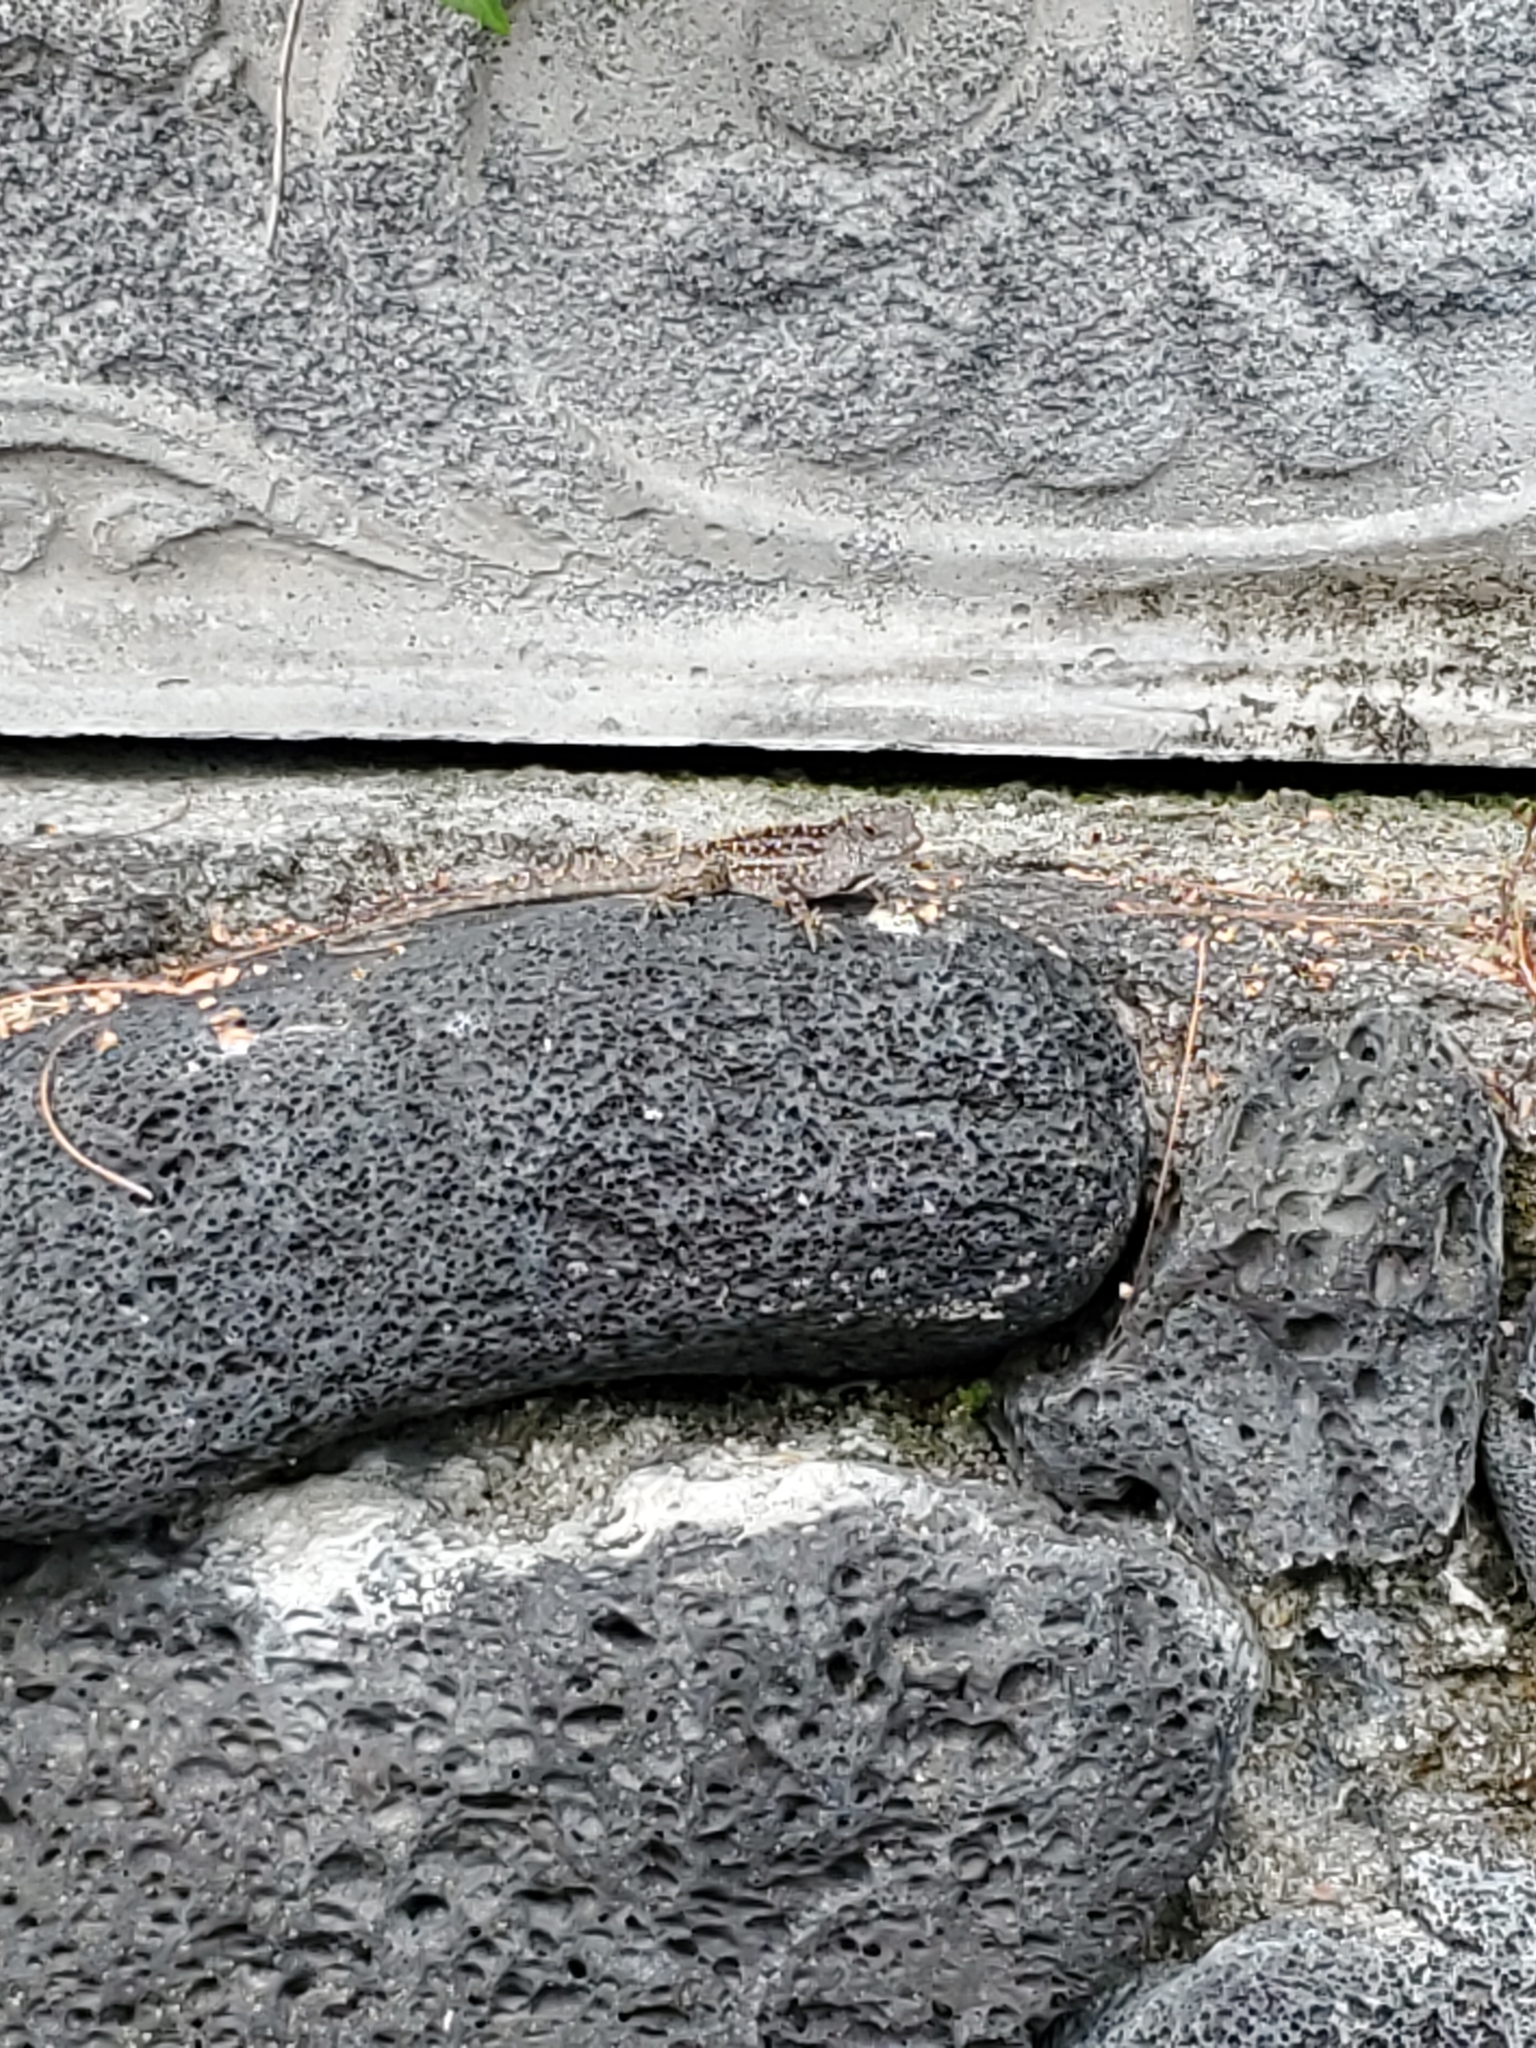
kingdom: Animalia
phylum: Chordata
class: Squamata
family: Dactyloidae
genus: Anolis
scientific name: Anolis sagrei
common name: Brown anole
